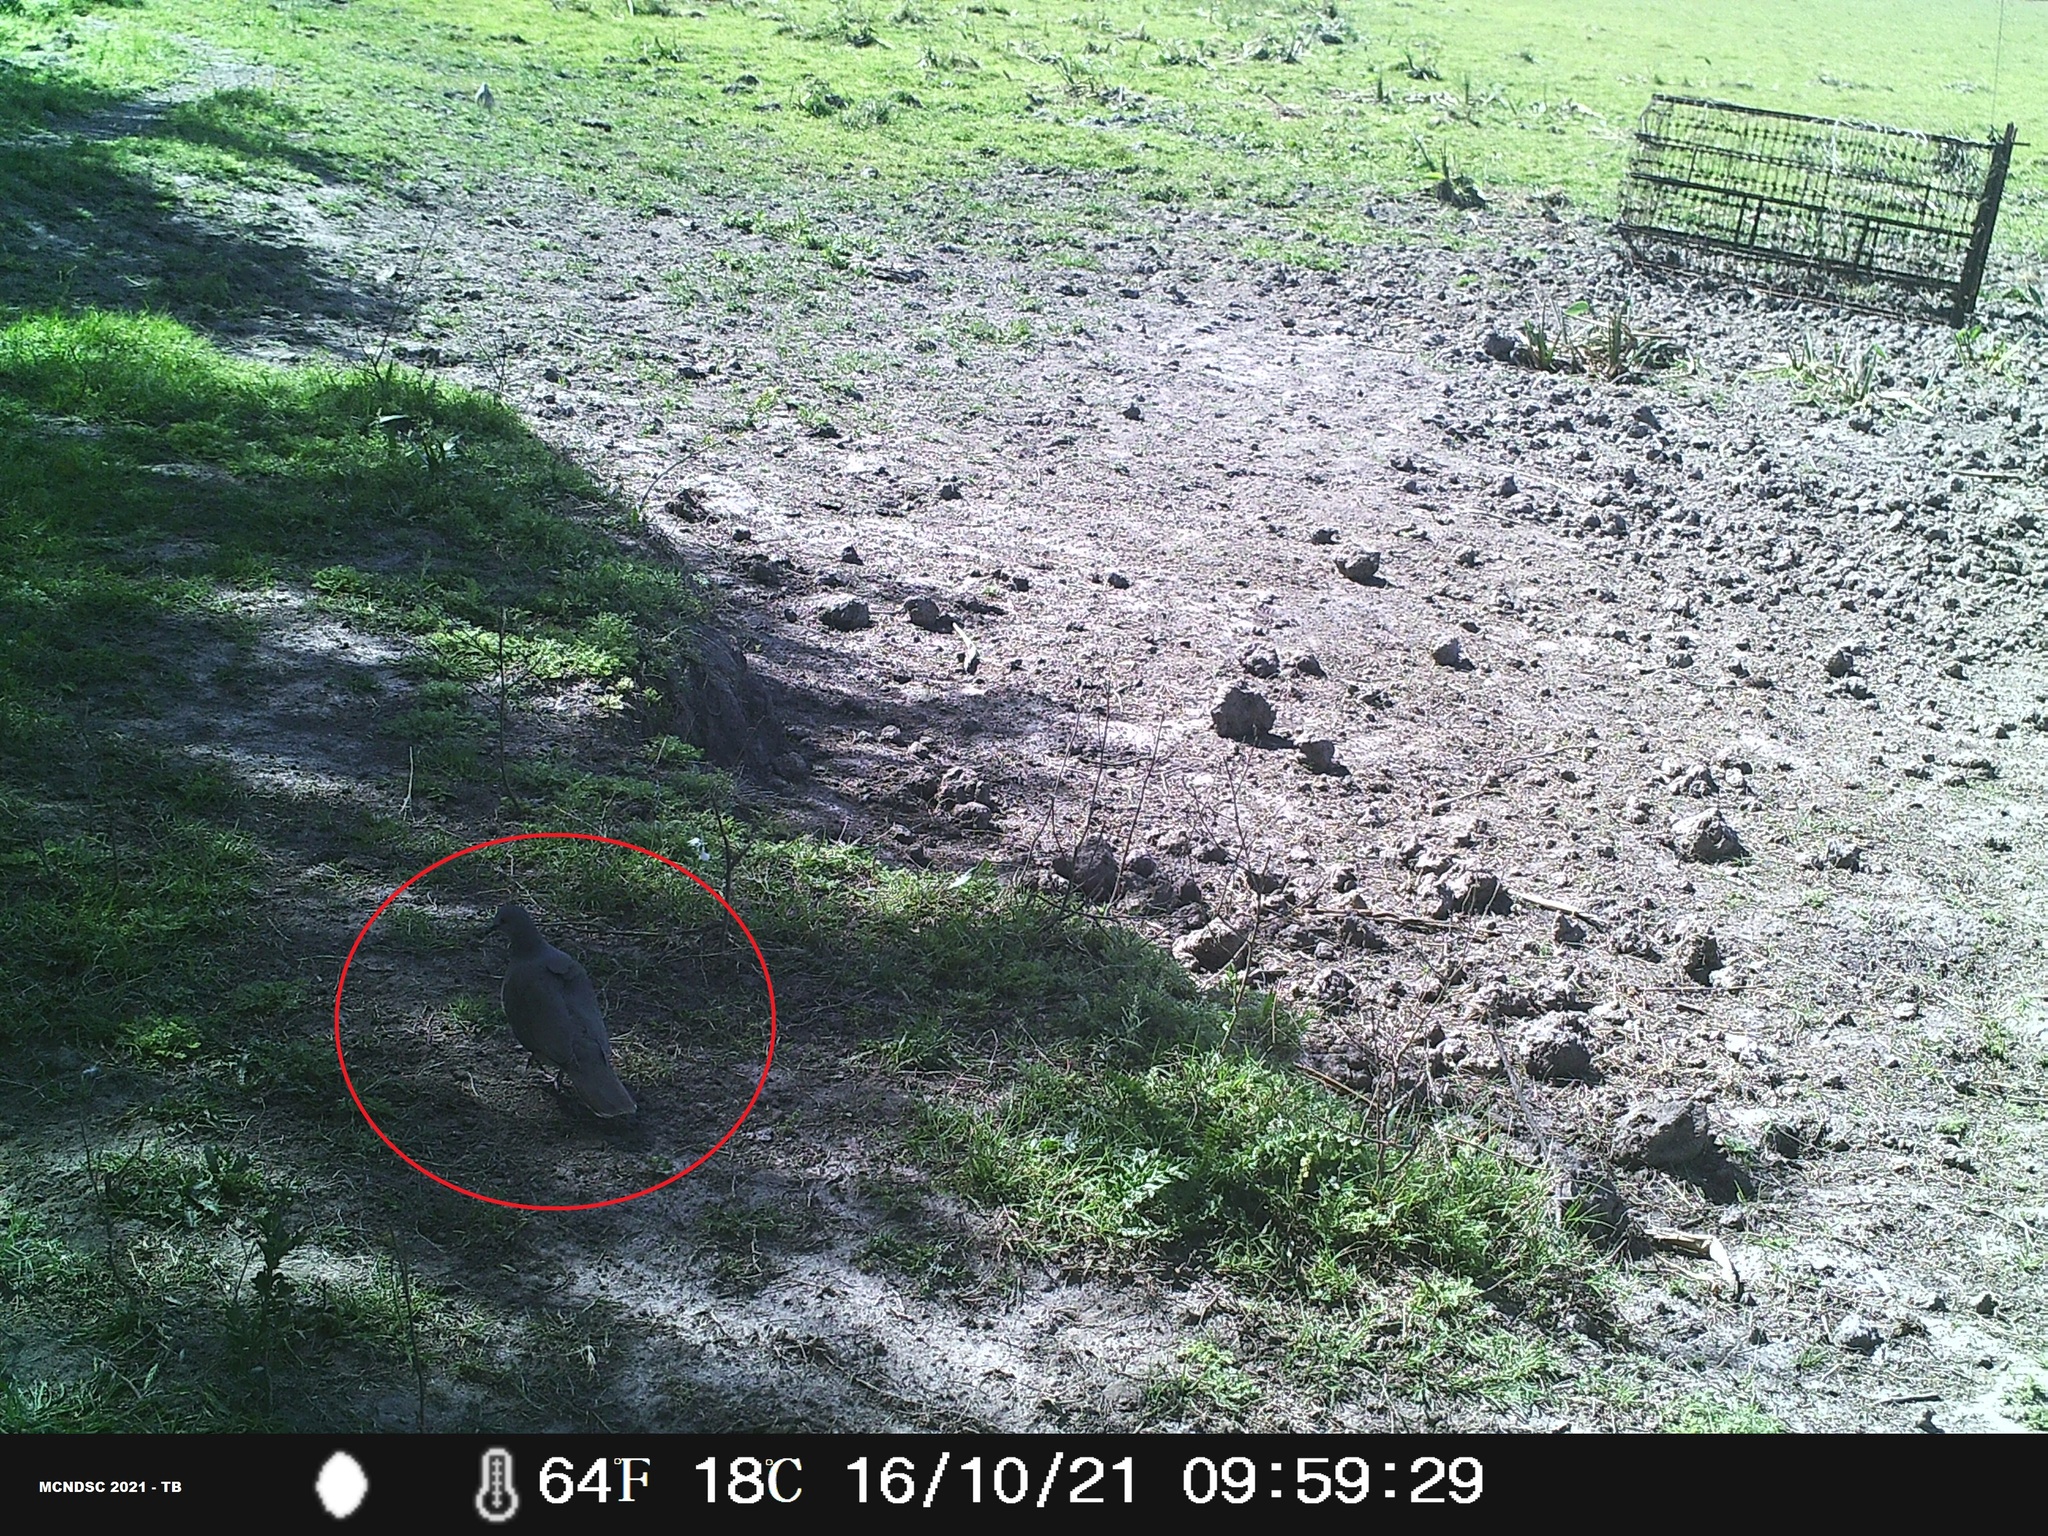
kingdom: Animalia
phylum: Chordata
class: Aves
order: Columbiformes
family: Columbidae
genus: Leptotila
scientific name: Leptotila verreauxi
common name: White-tipped dove
